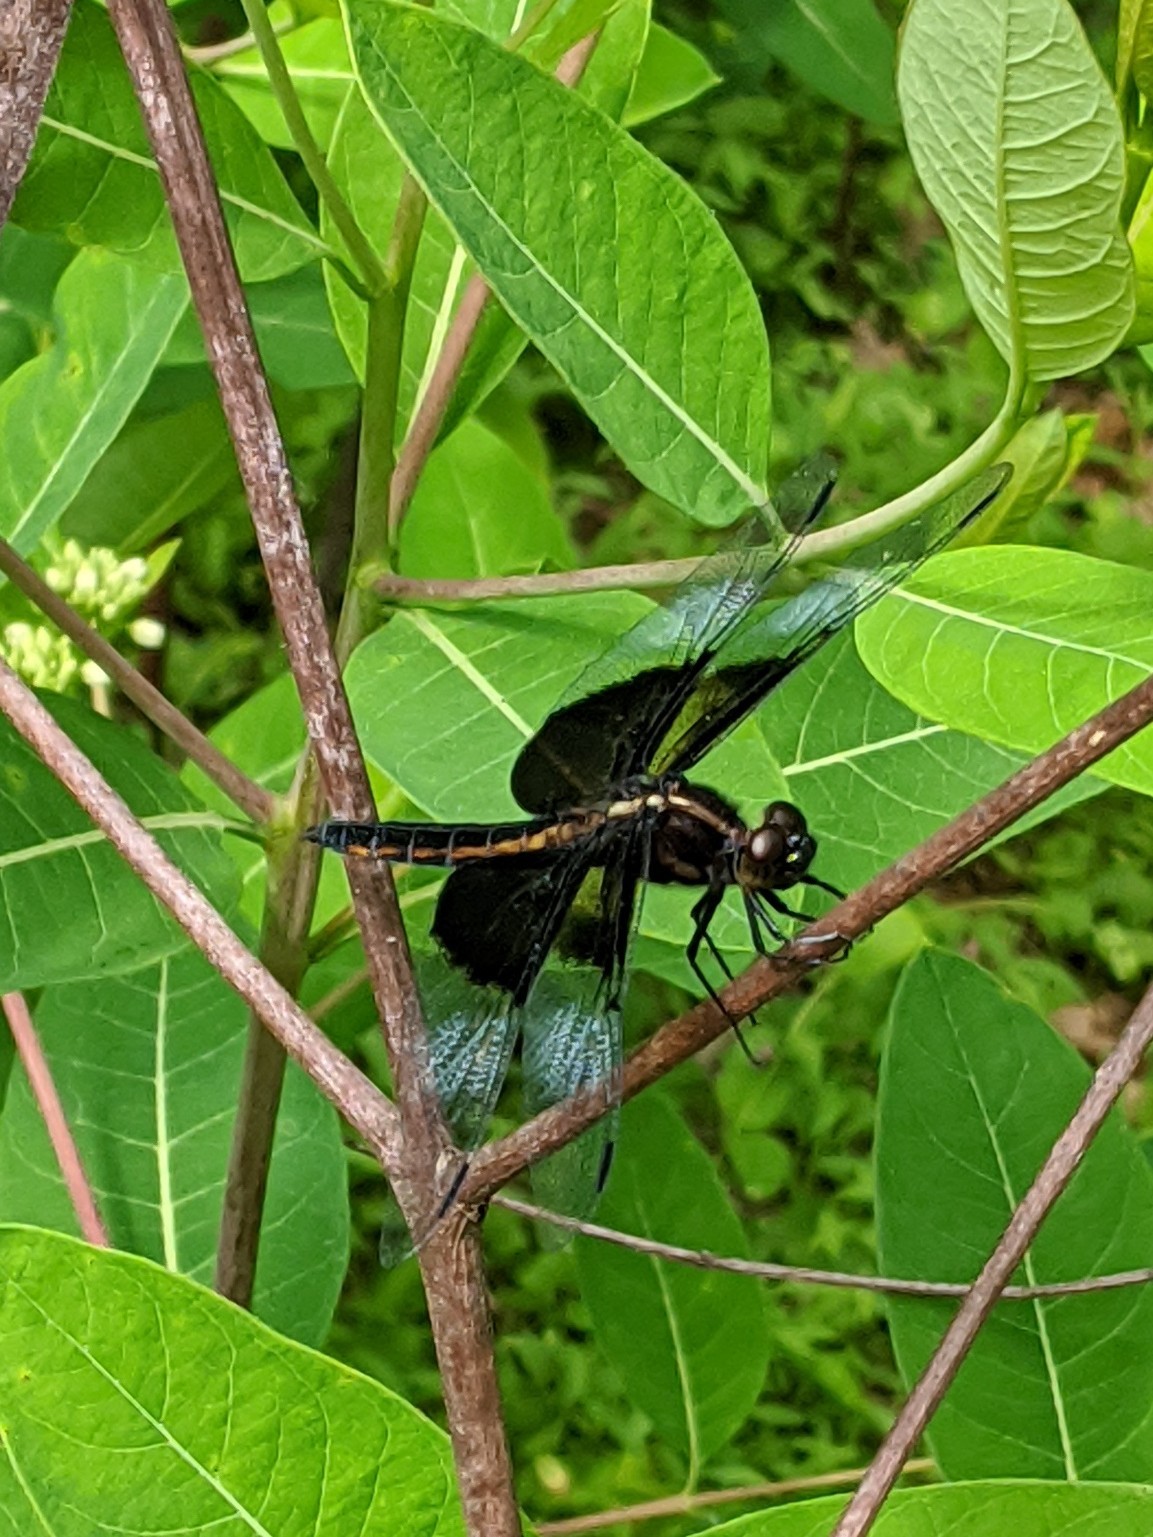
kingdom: Animalia
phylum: Arthropoda
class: Insecta
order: Odonata
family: Libellulidae
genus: Libellula
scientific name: Libellula luctuosa
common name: Widow skimmer
